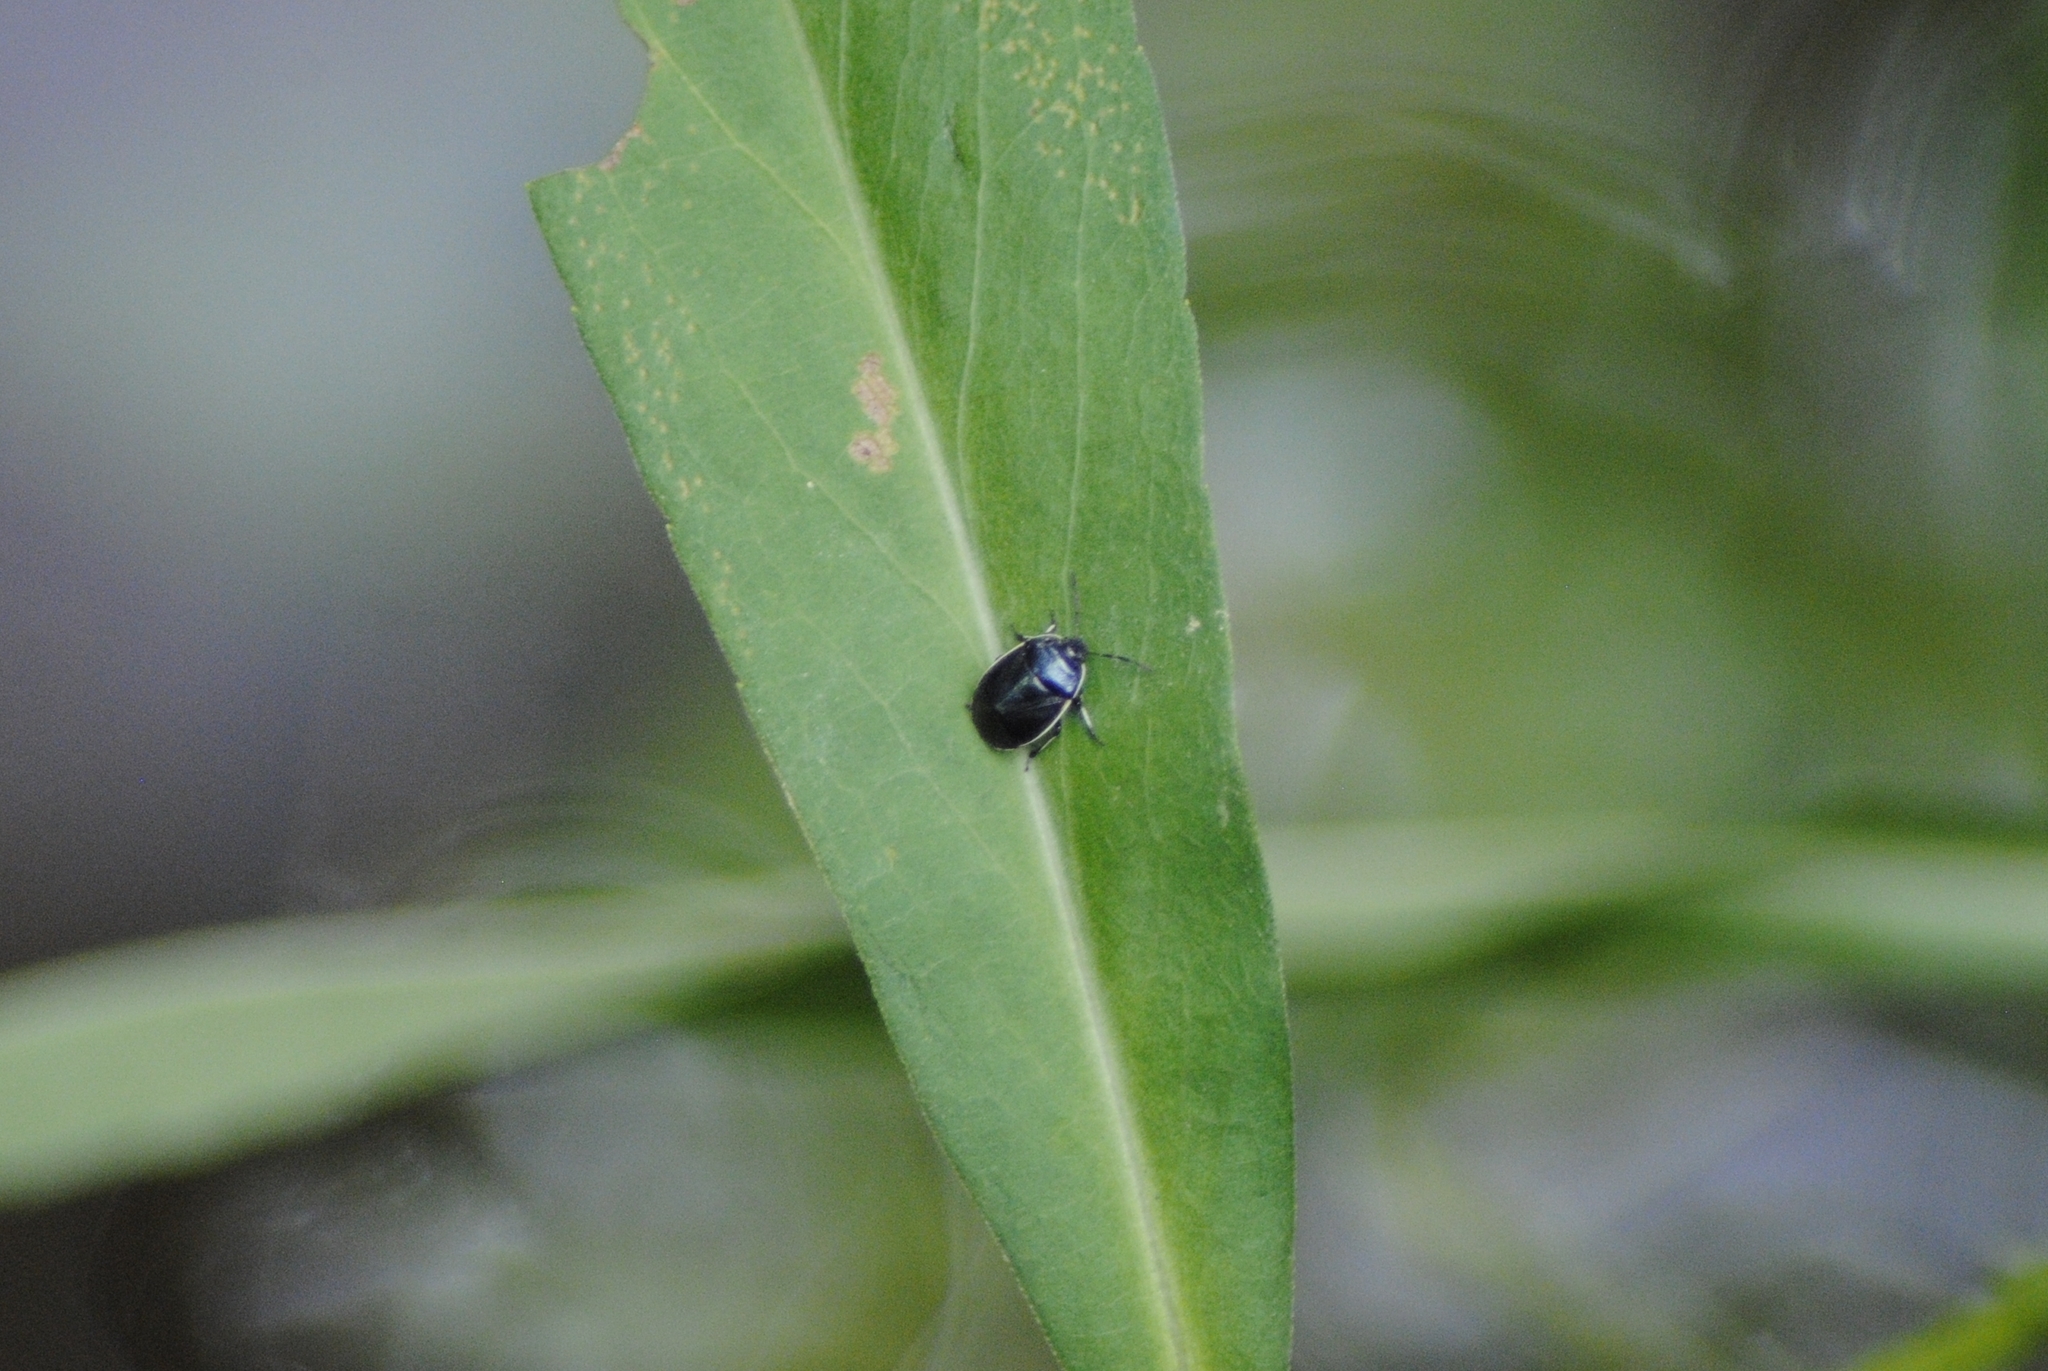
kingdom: Animalia
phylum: Arthropoda
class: Insecta
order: Hemiptera
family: Cydnidae
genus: Sehirus
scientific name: Sehirus cinctus
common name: White-margined burrower bug
